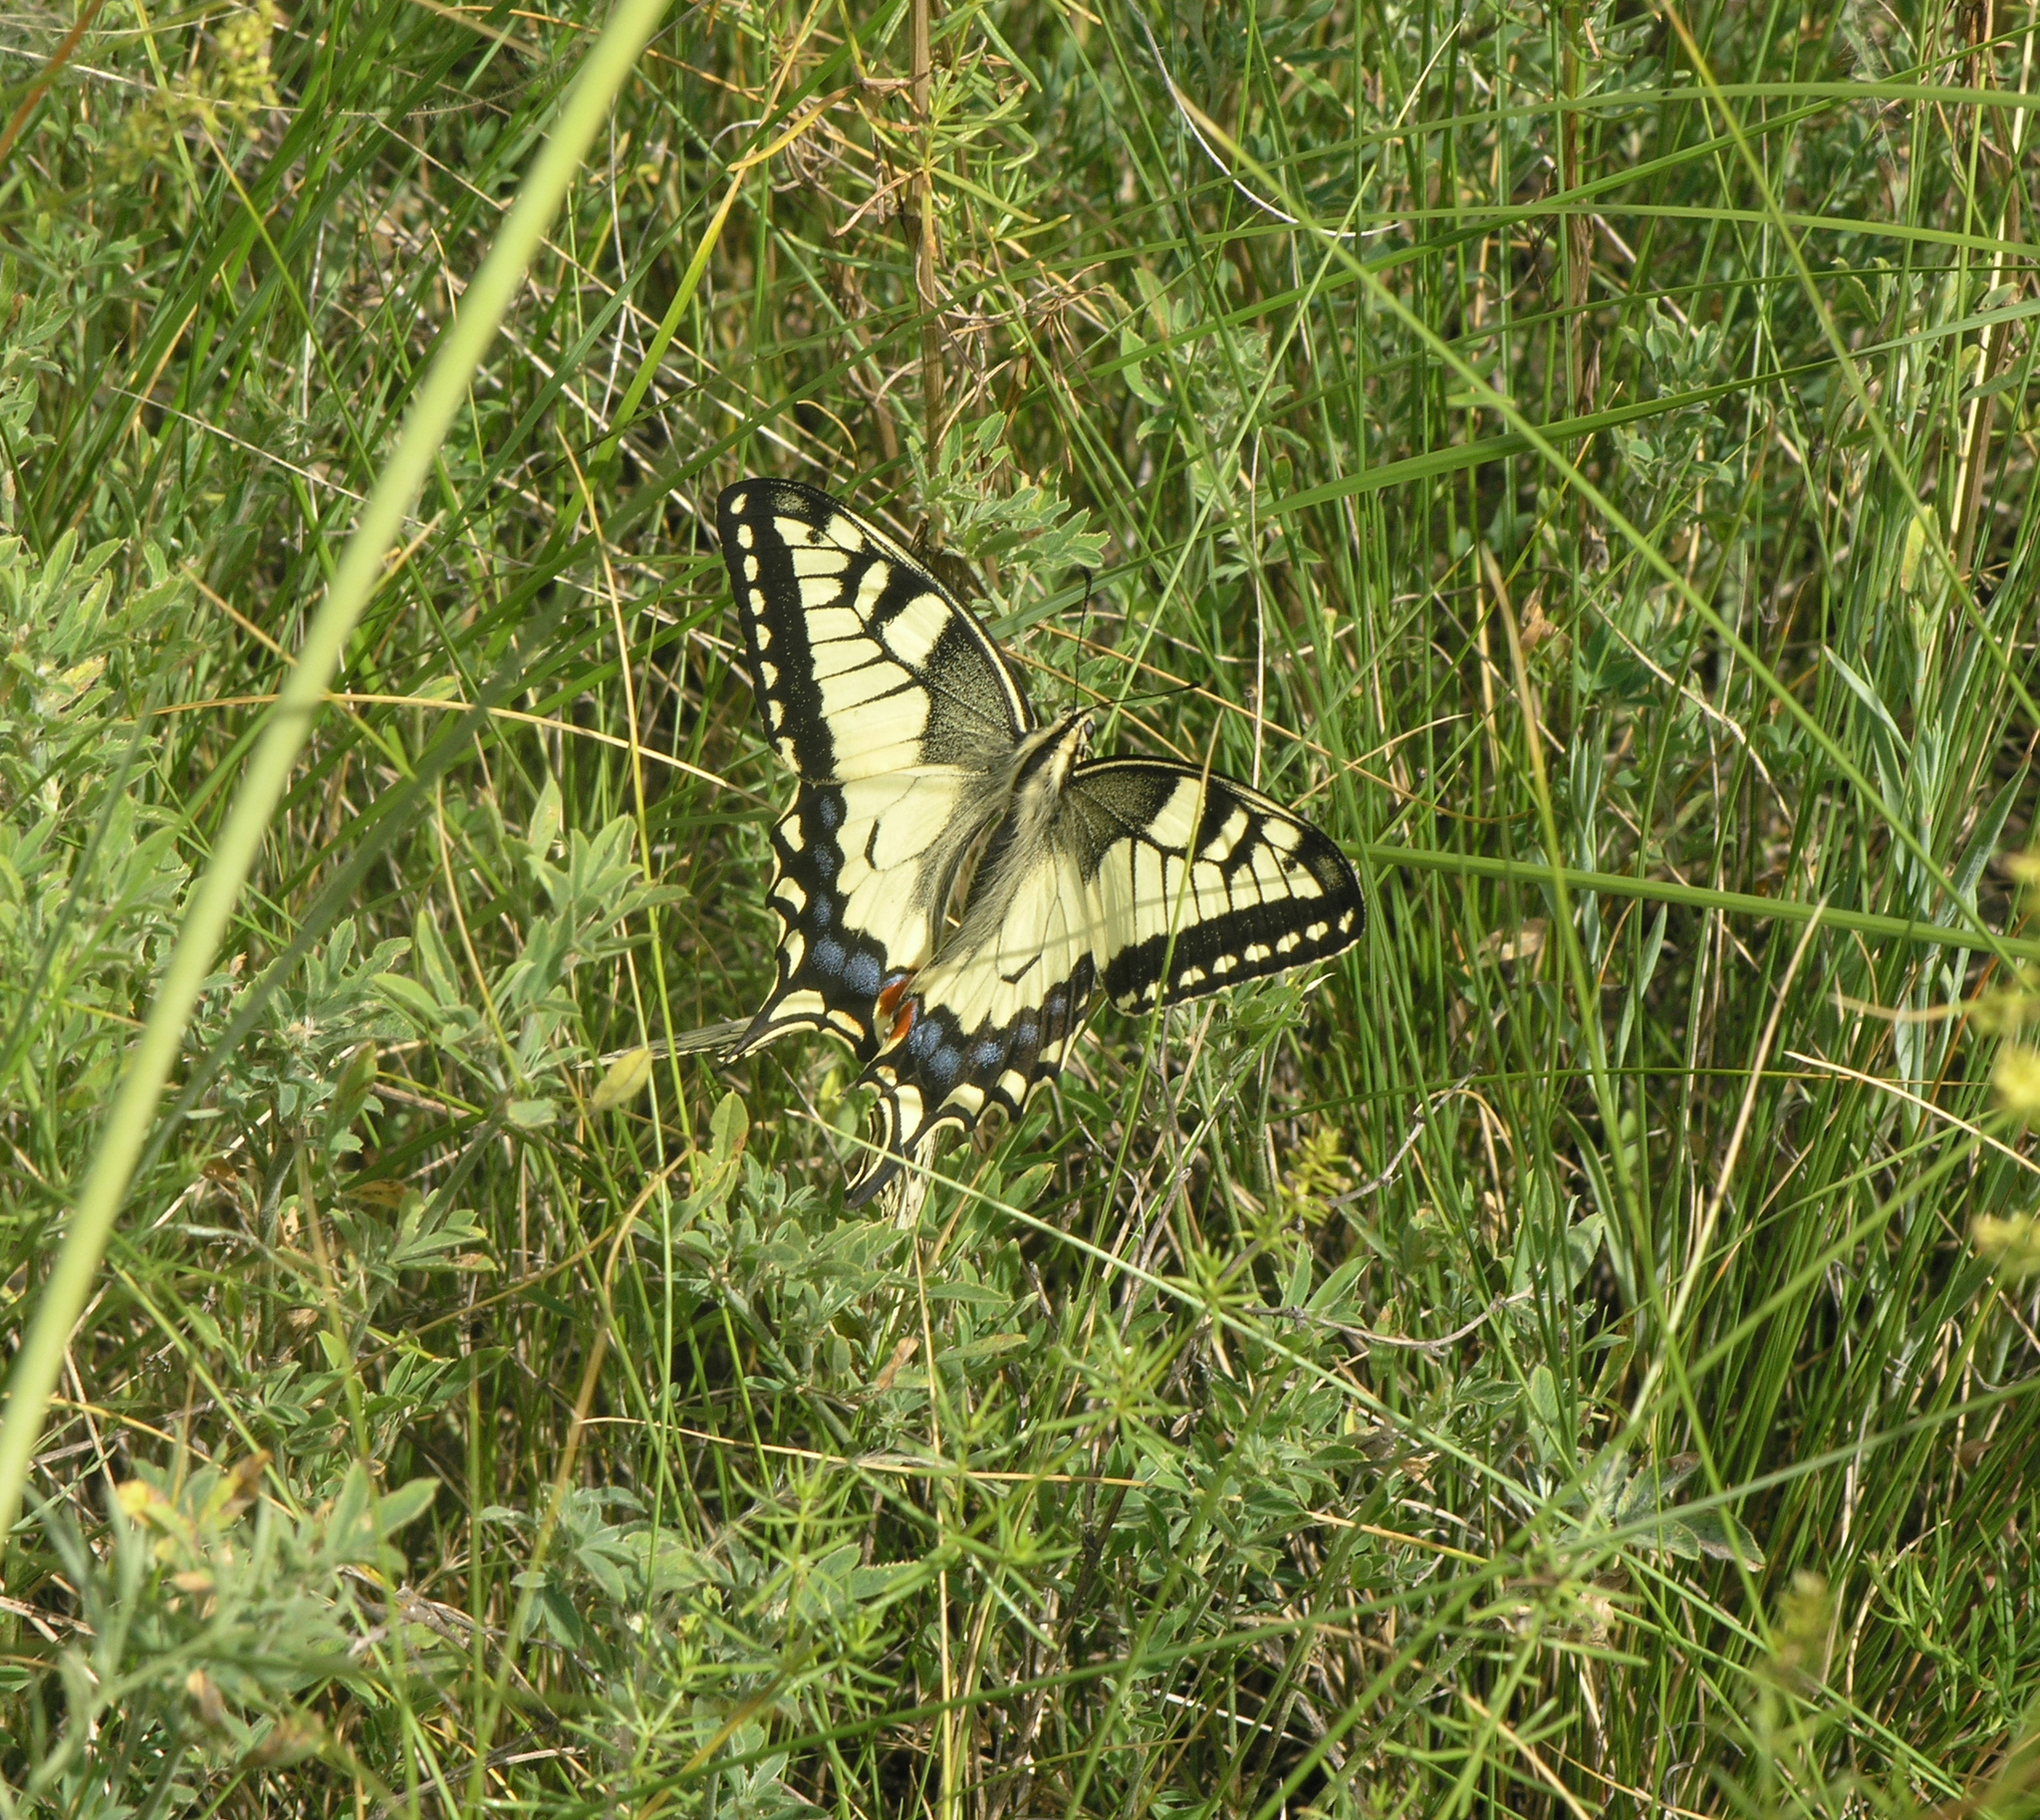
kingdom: Animalia
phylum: Arthropoda
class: Insecta
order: Lepidoptera
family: Papilionidae
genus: Papilio
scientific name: Papilio machaon
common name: Swallowtail
